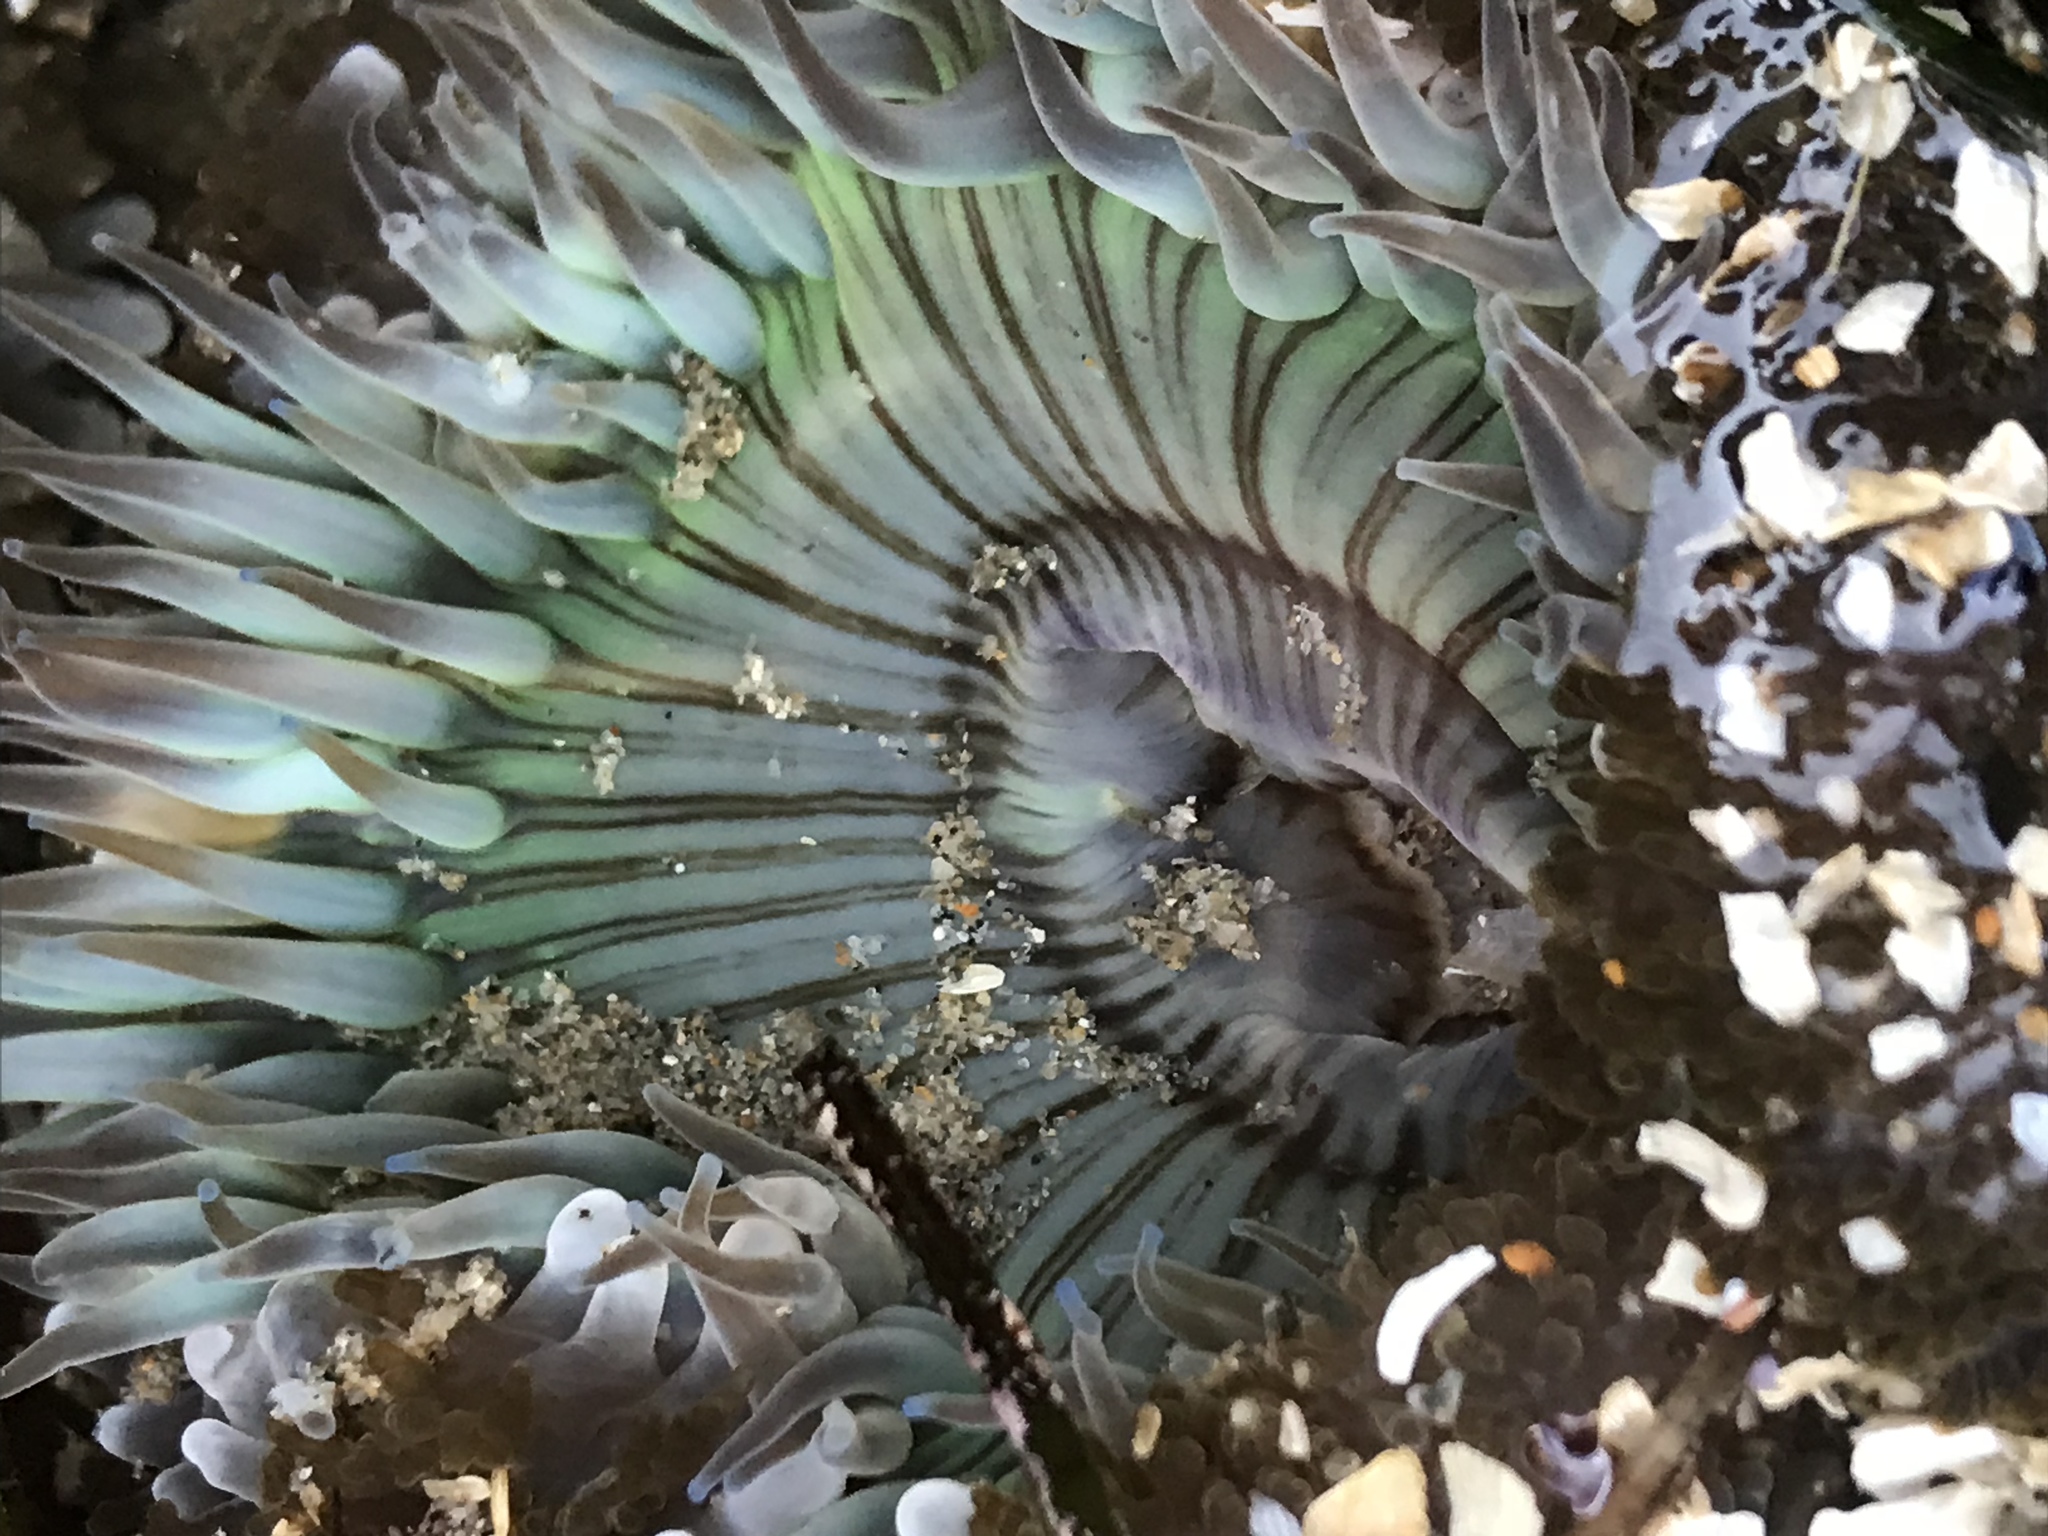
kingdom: Animalia
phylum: Cnidaria
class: Anthozoa
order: Actiniaria
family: Actiniidae
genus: Anthopleura
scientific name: Anthopleura sola
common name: Sun anemone
